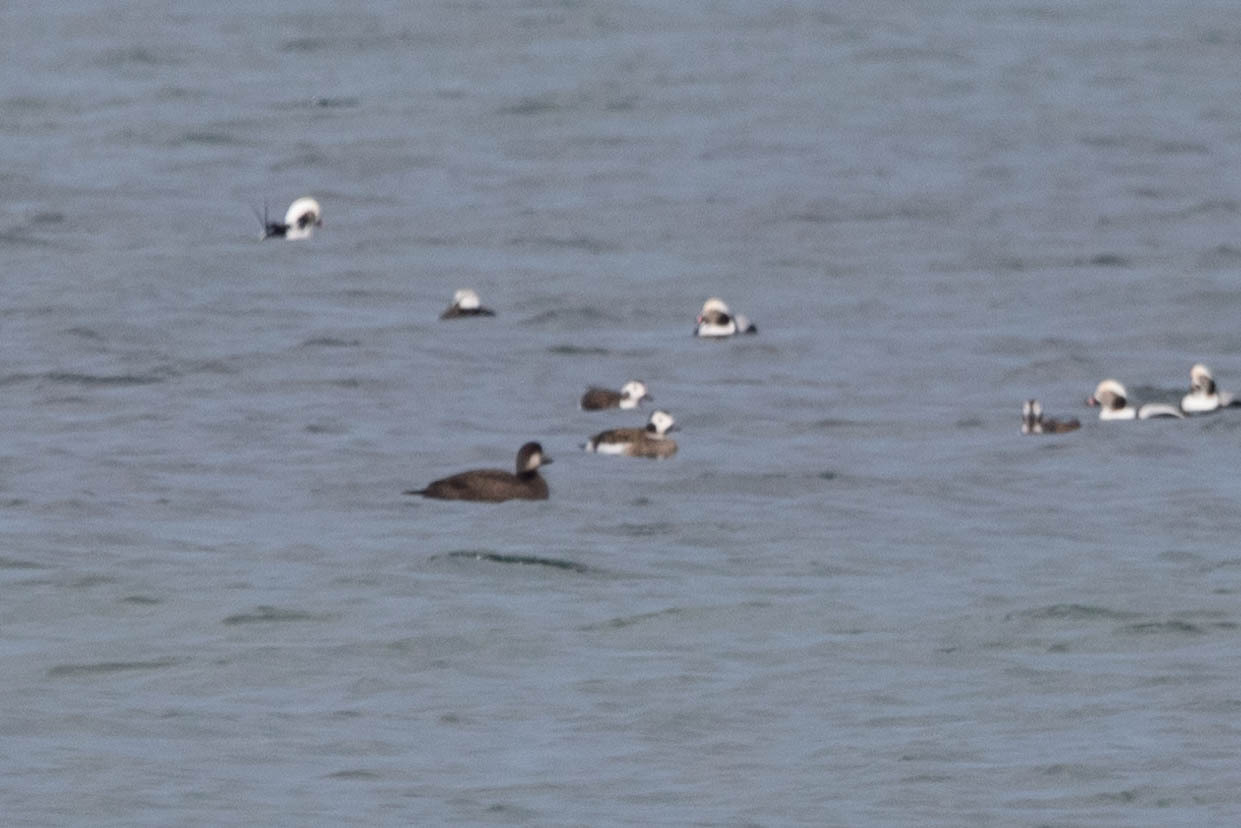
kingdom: Animalia
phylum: Chordata
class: Aves
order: Anseriformes
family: Anatidae
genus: Melanitta
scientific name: Melanitta americana
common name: Black scoter
